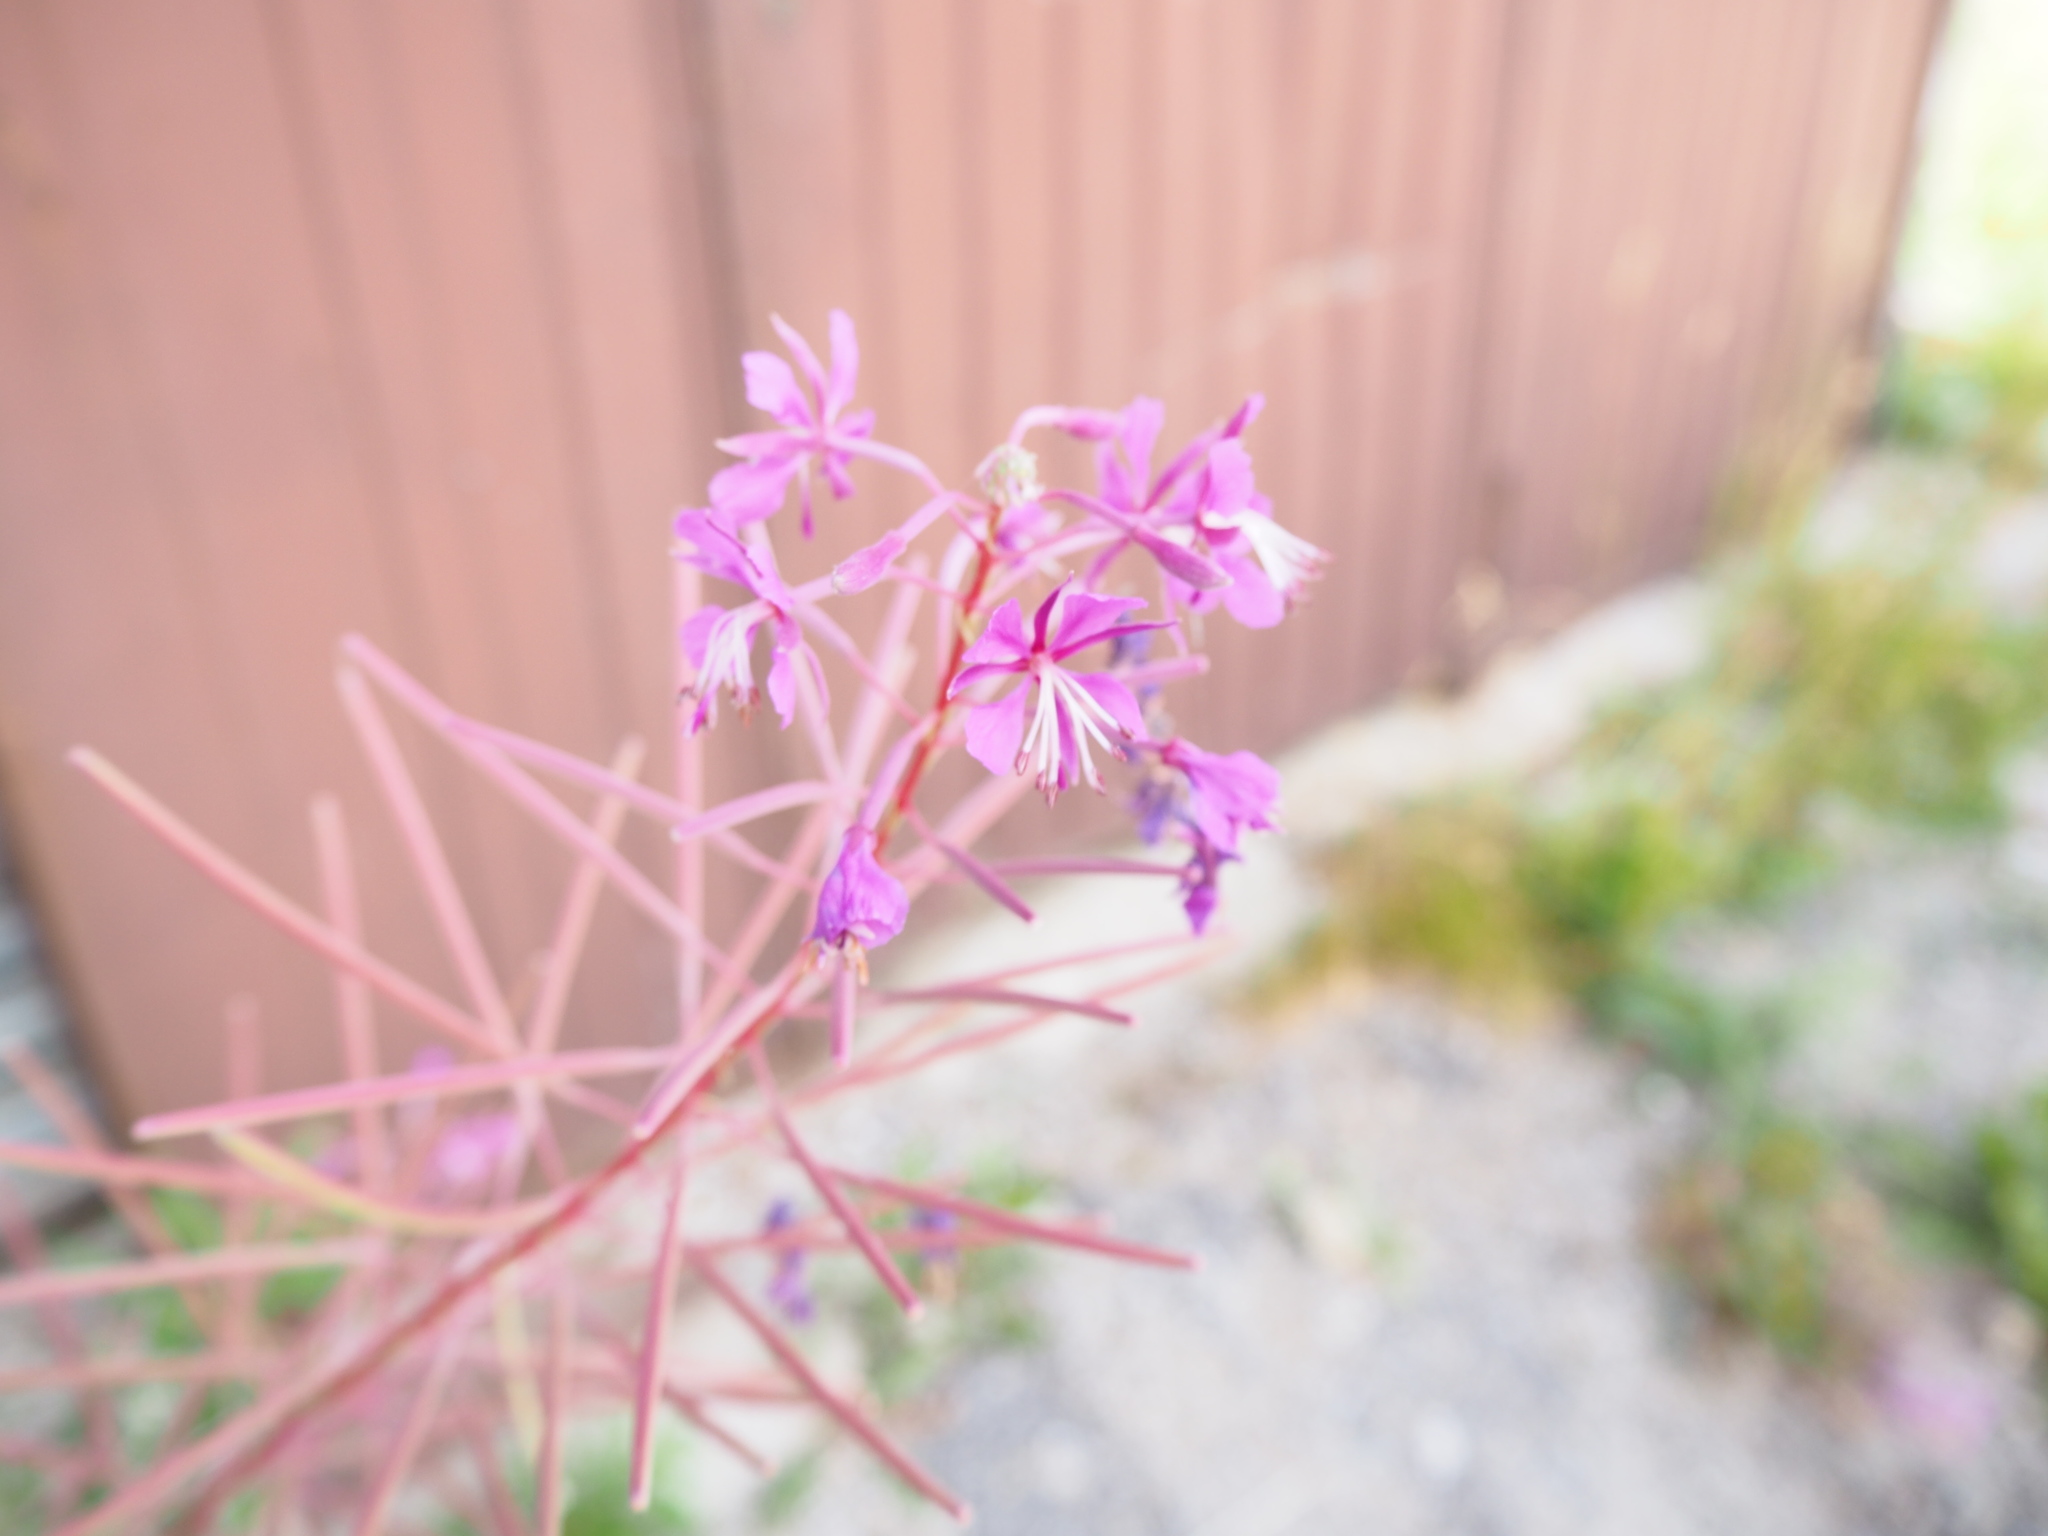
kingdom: Plantae
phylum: Tracheophyta
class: Magnoliopsida
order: Myrtales
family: Onagraceae
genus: Chamaenerion
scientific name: Chamaenerion angustifolium
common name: Fireweed
